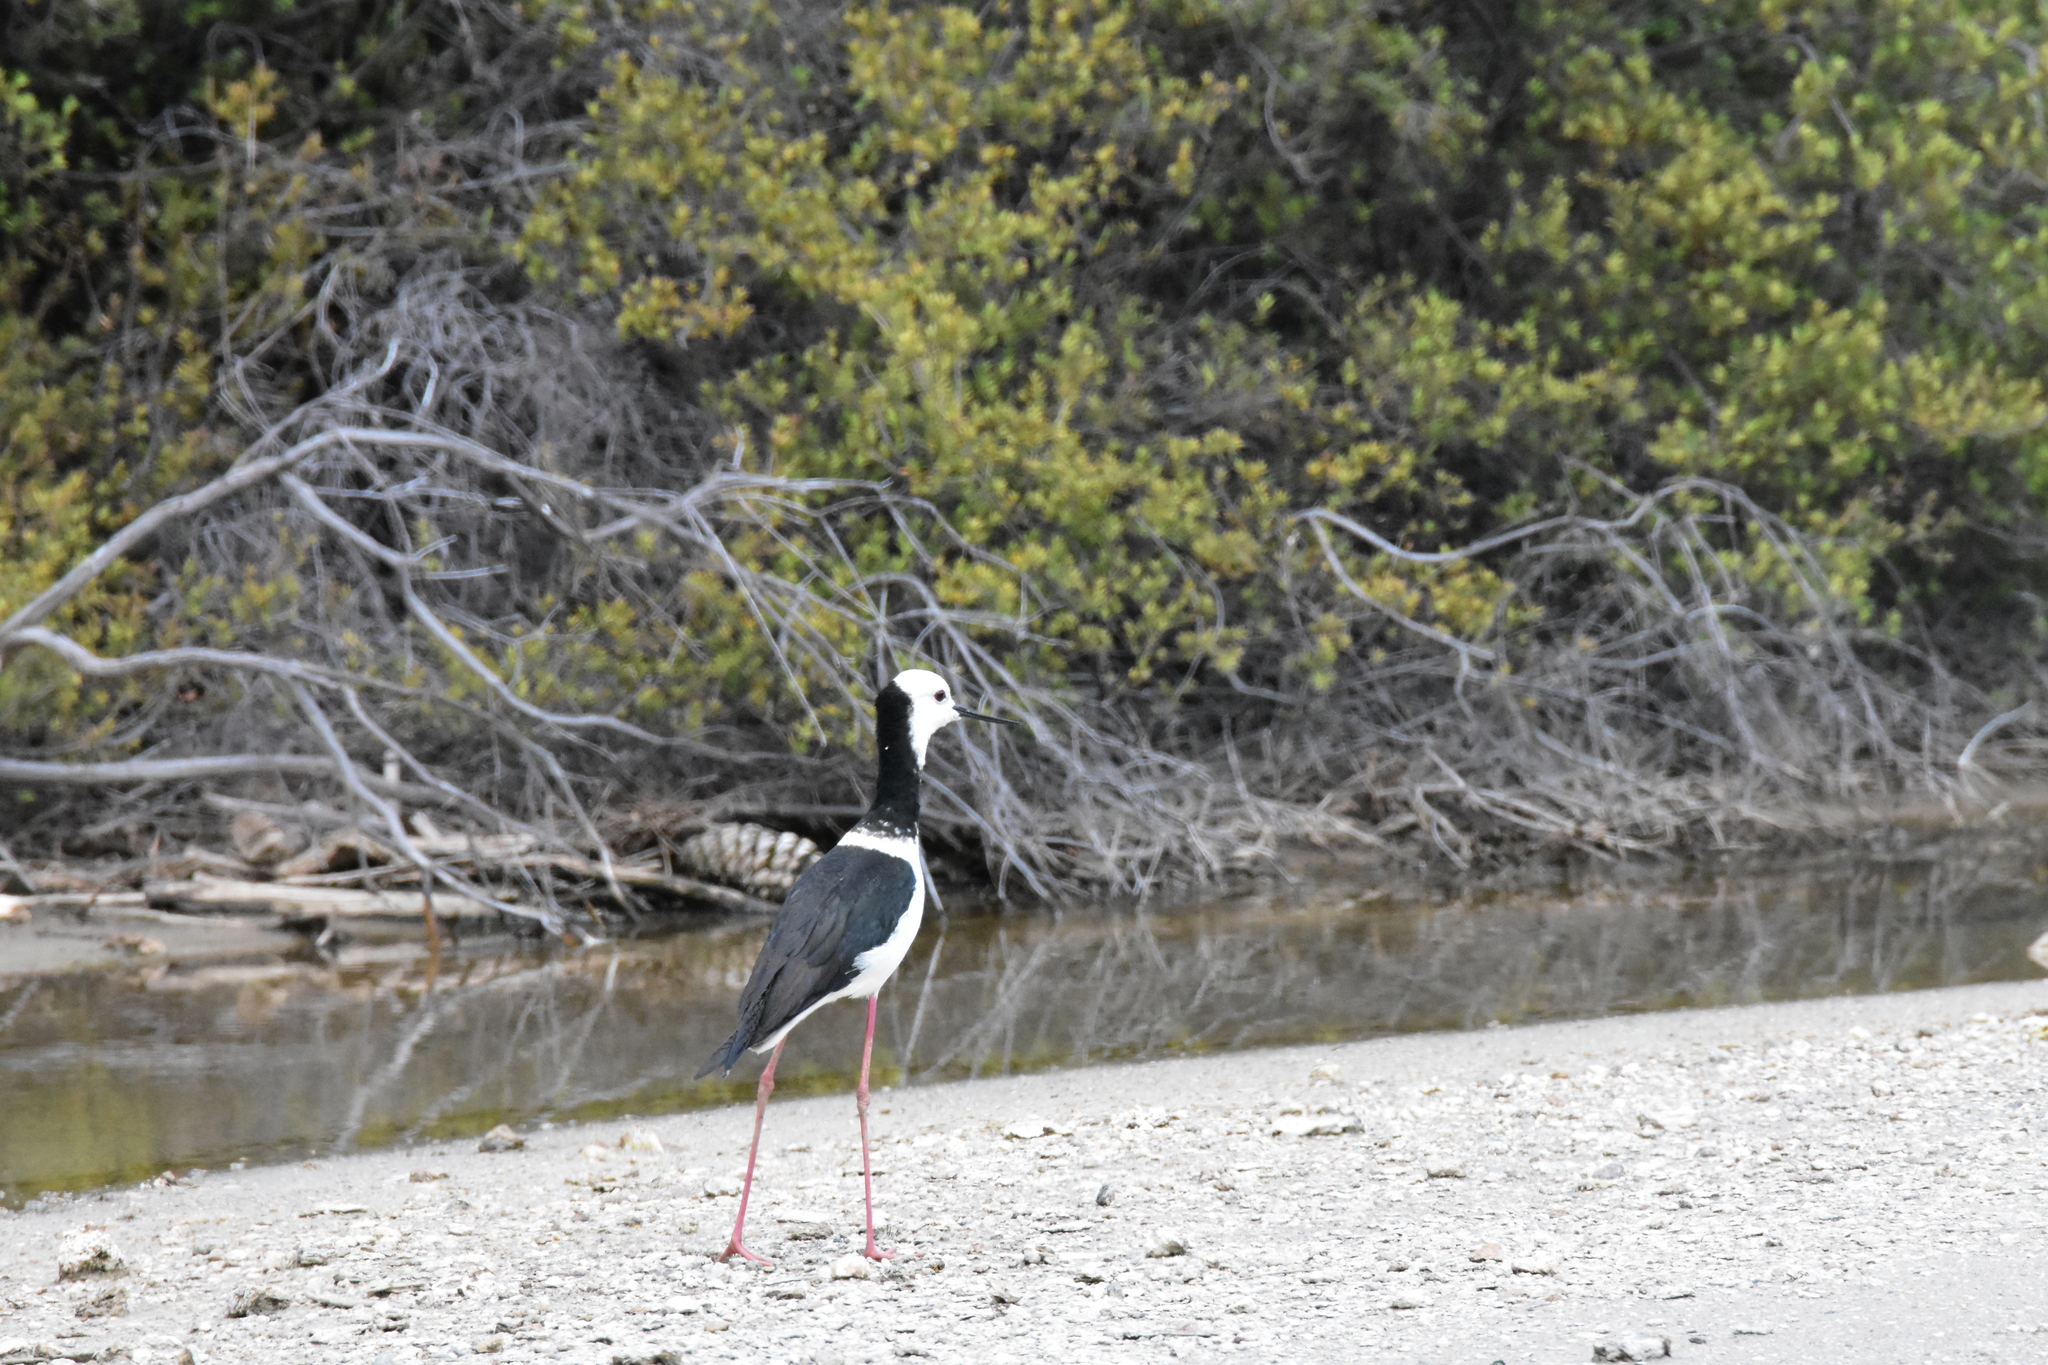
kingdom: Animalia
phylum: Chordata
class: Aves
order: Charadriiformes
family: Recurvirostridae
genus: Himantopus
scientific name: Himantopus leucocephalus
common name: White-headed stilt
